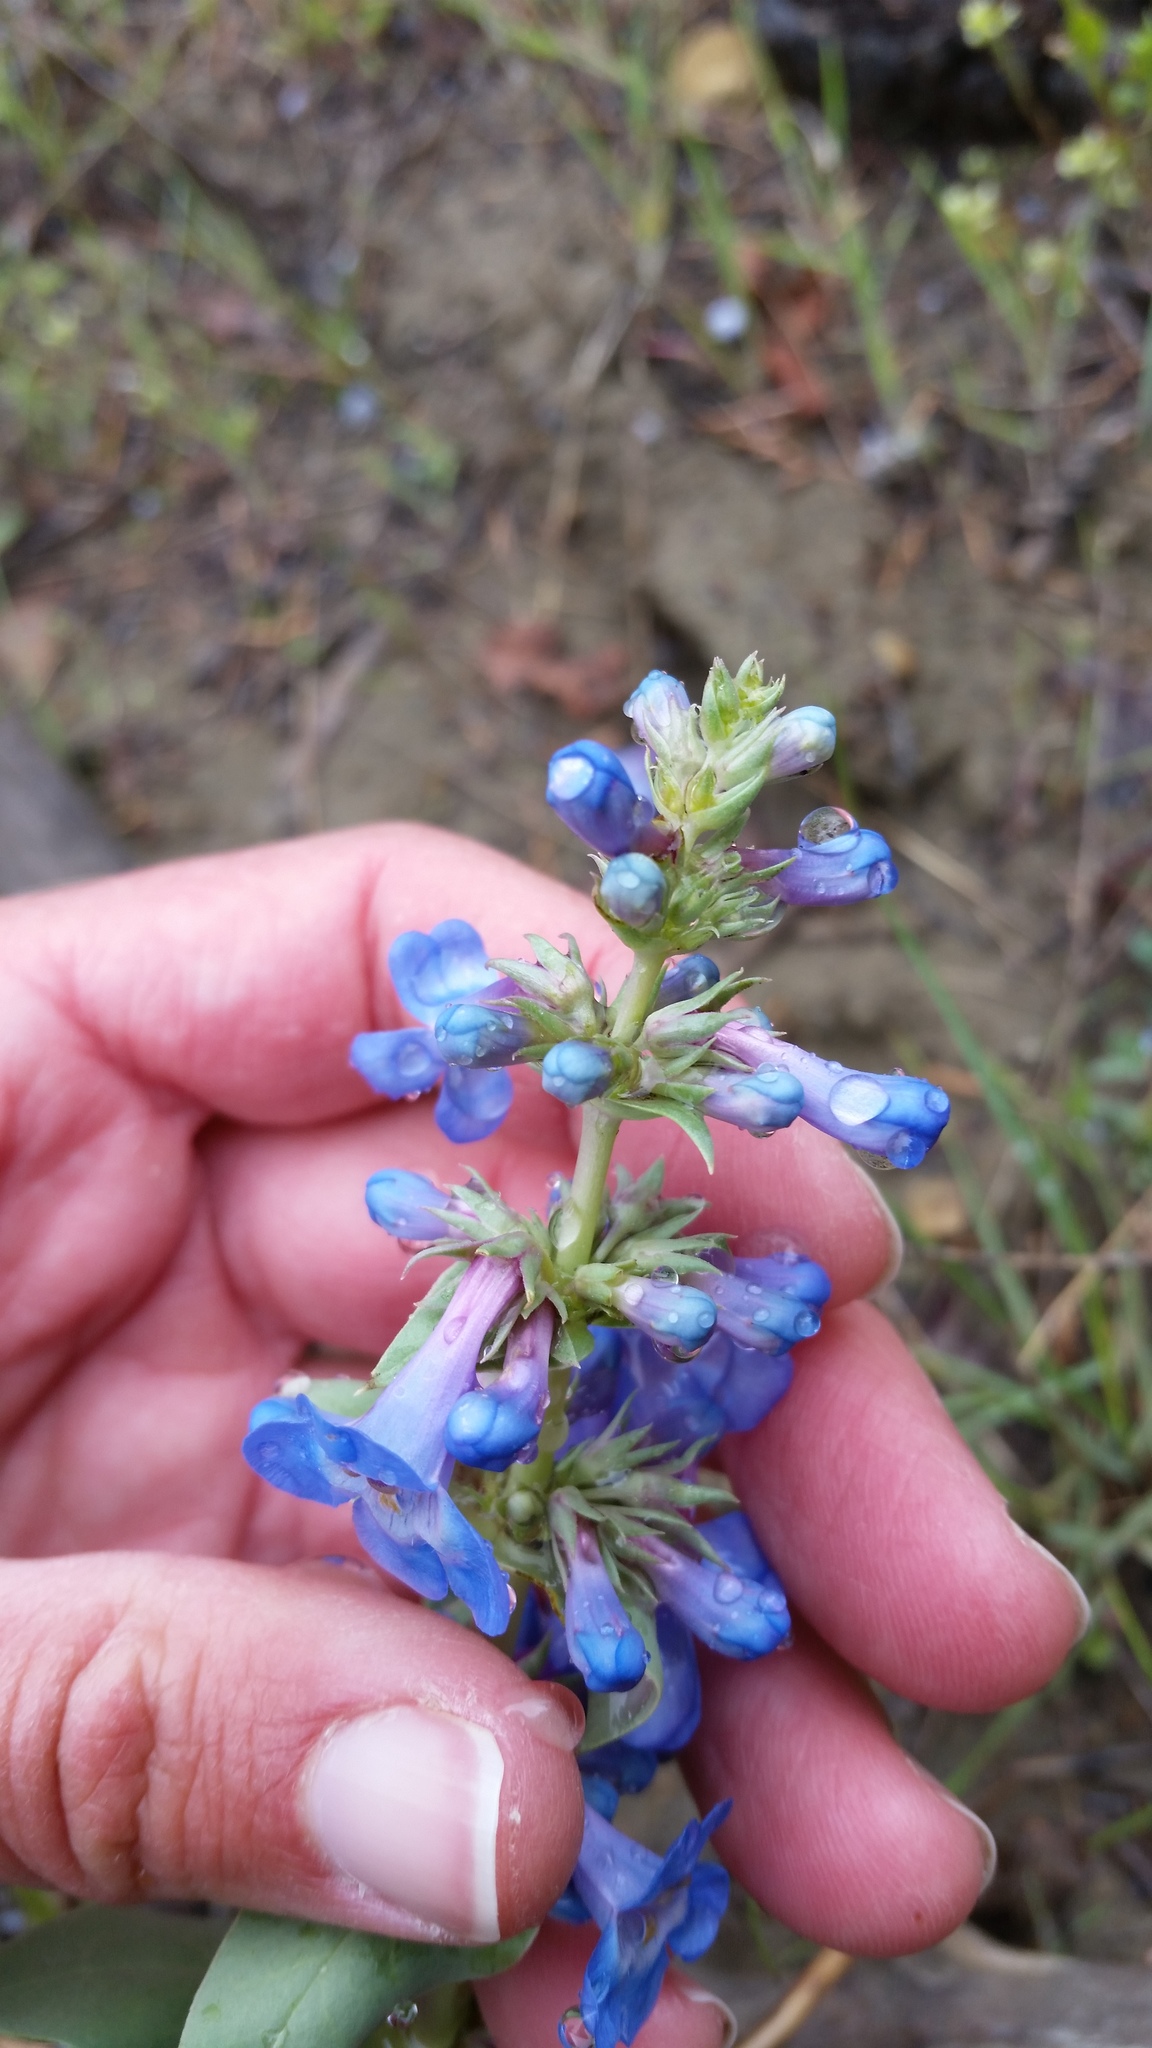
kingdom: Plantae
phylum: Tracheophyta
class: Magnoliopsida
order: Lamiales
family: Plantaginaceae
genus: Penstemon
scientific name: Penstemon nitidus
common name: Shining penstemon
